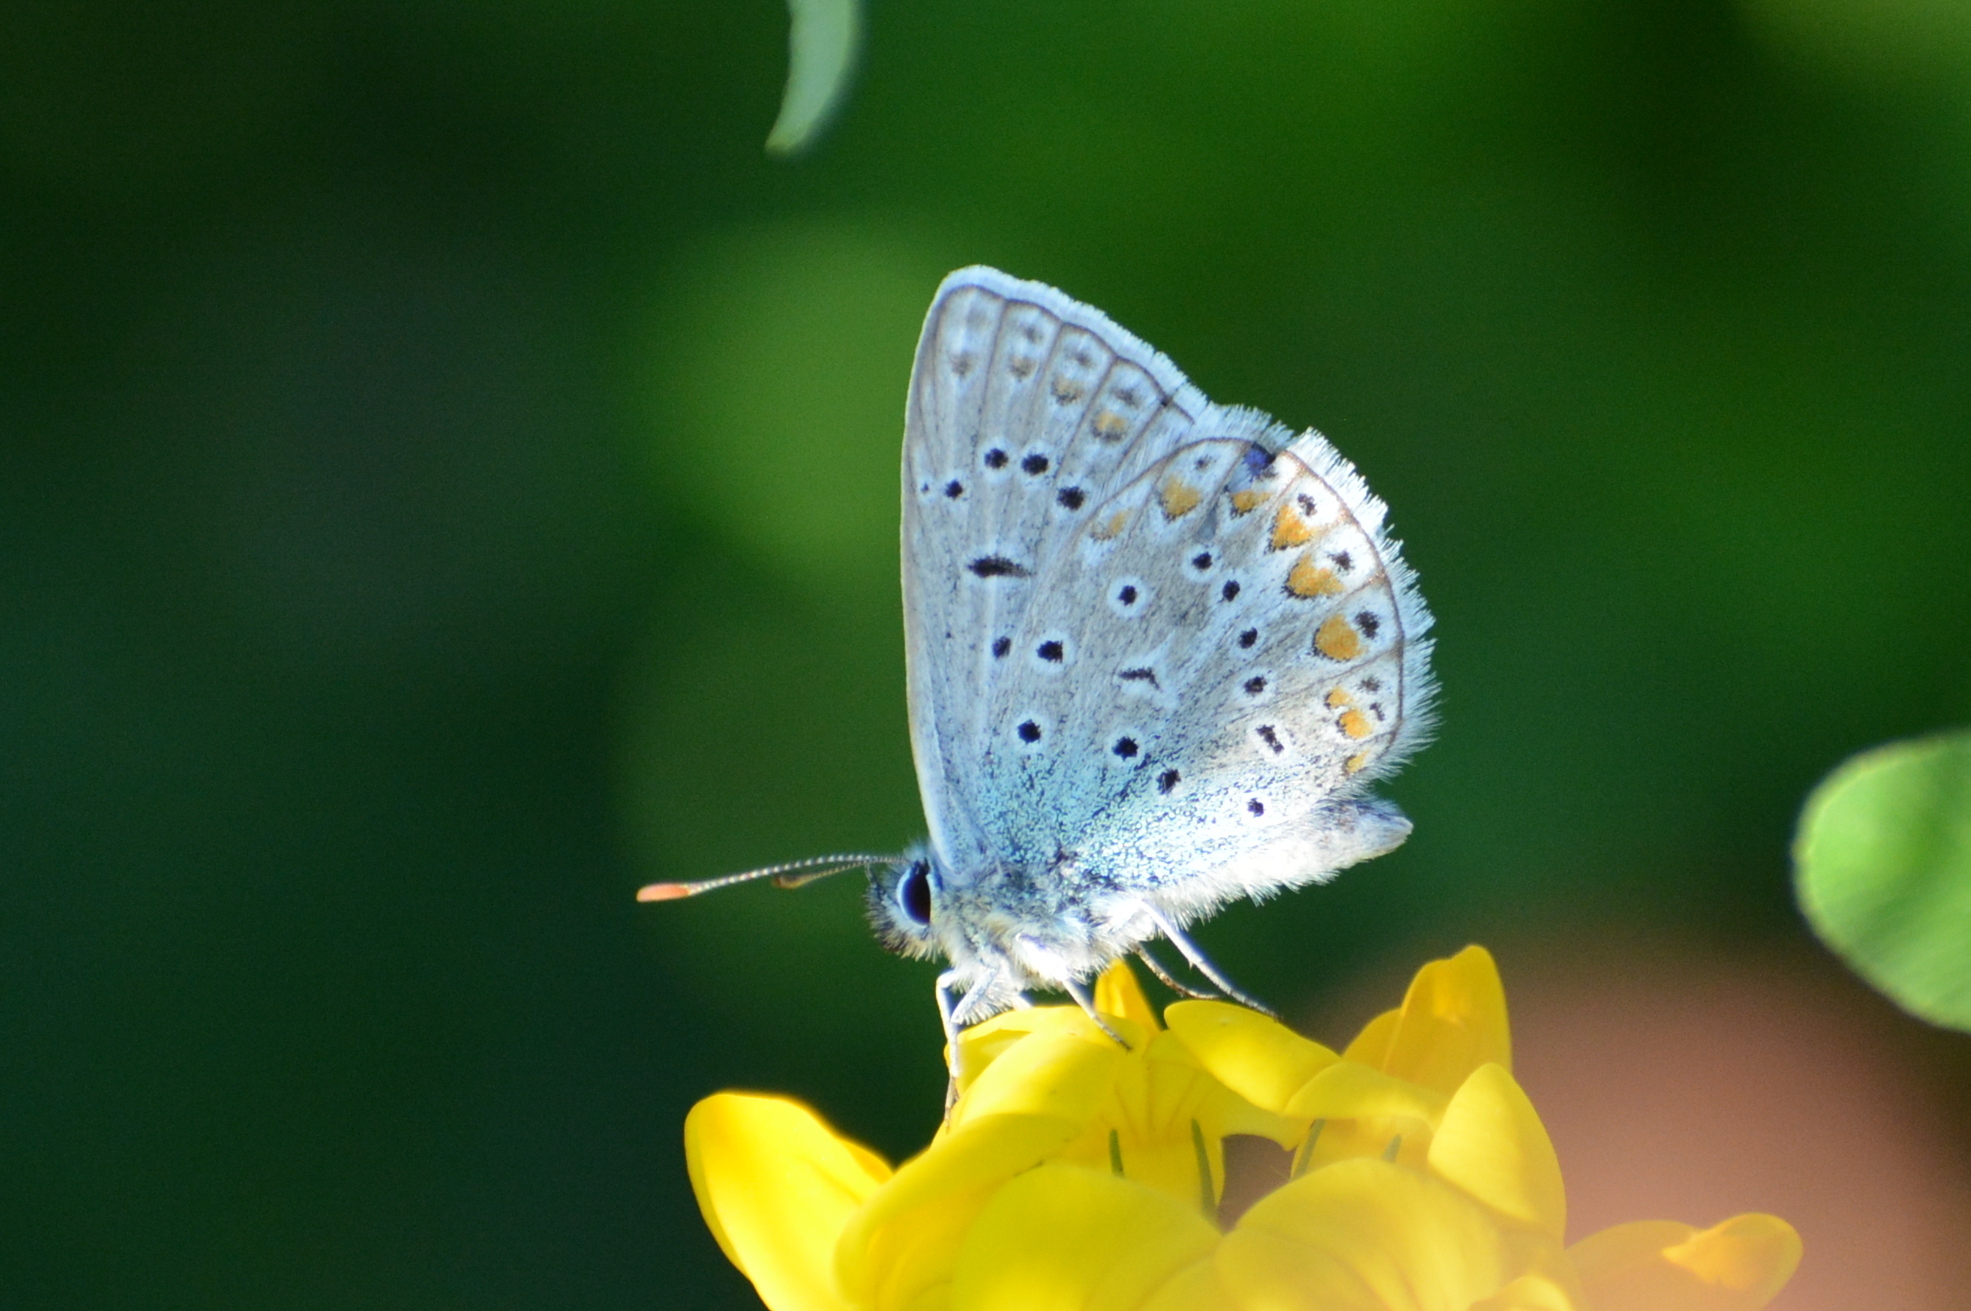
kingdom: Animalia
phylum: Arthropoda
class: Insecta
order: Lepidoptera
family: Lycaenidae
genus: Polyommatus
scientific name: Polyommatus icarus
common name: Common blue
